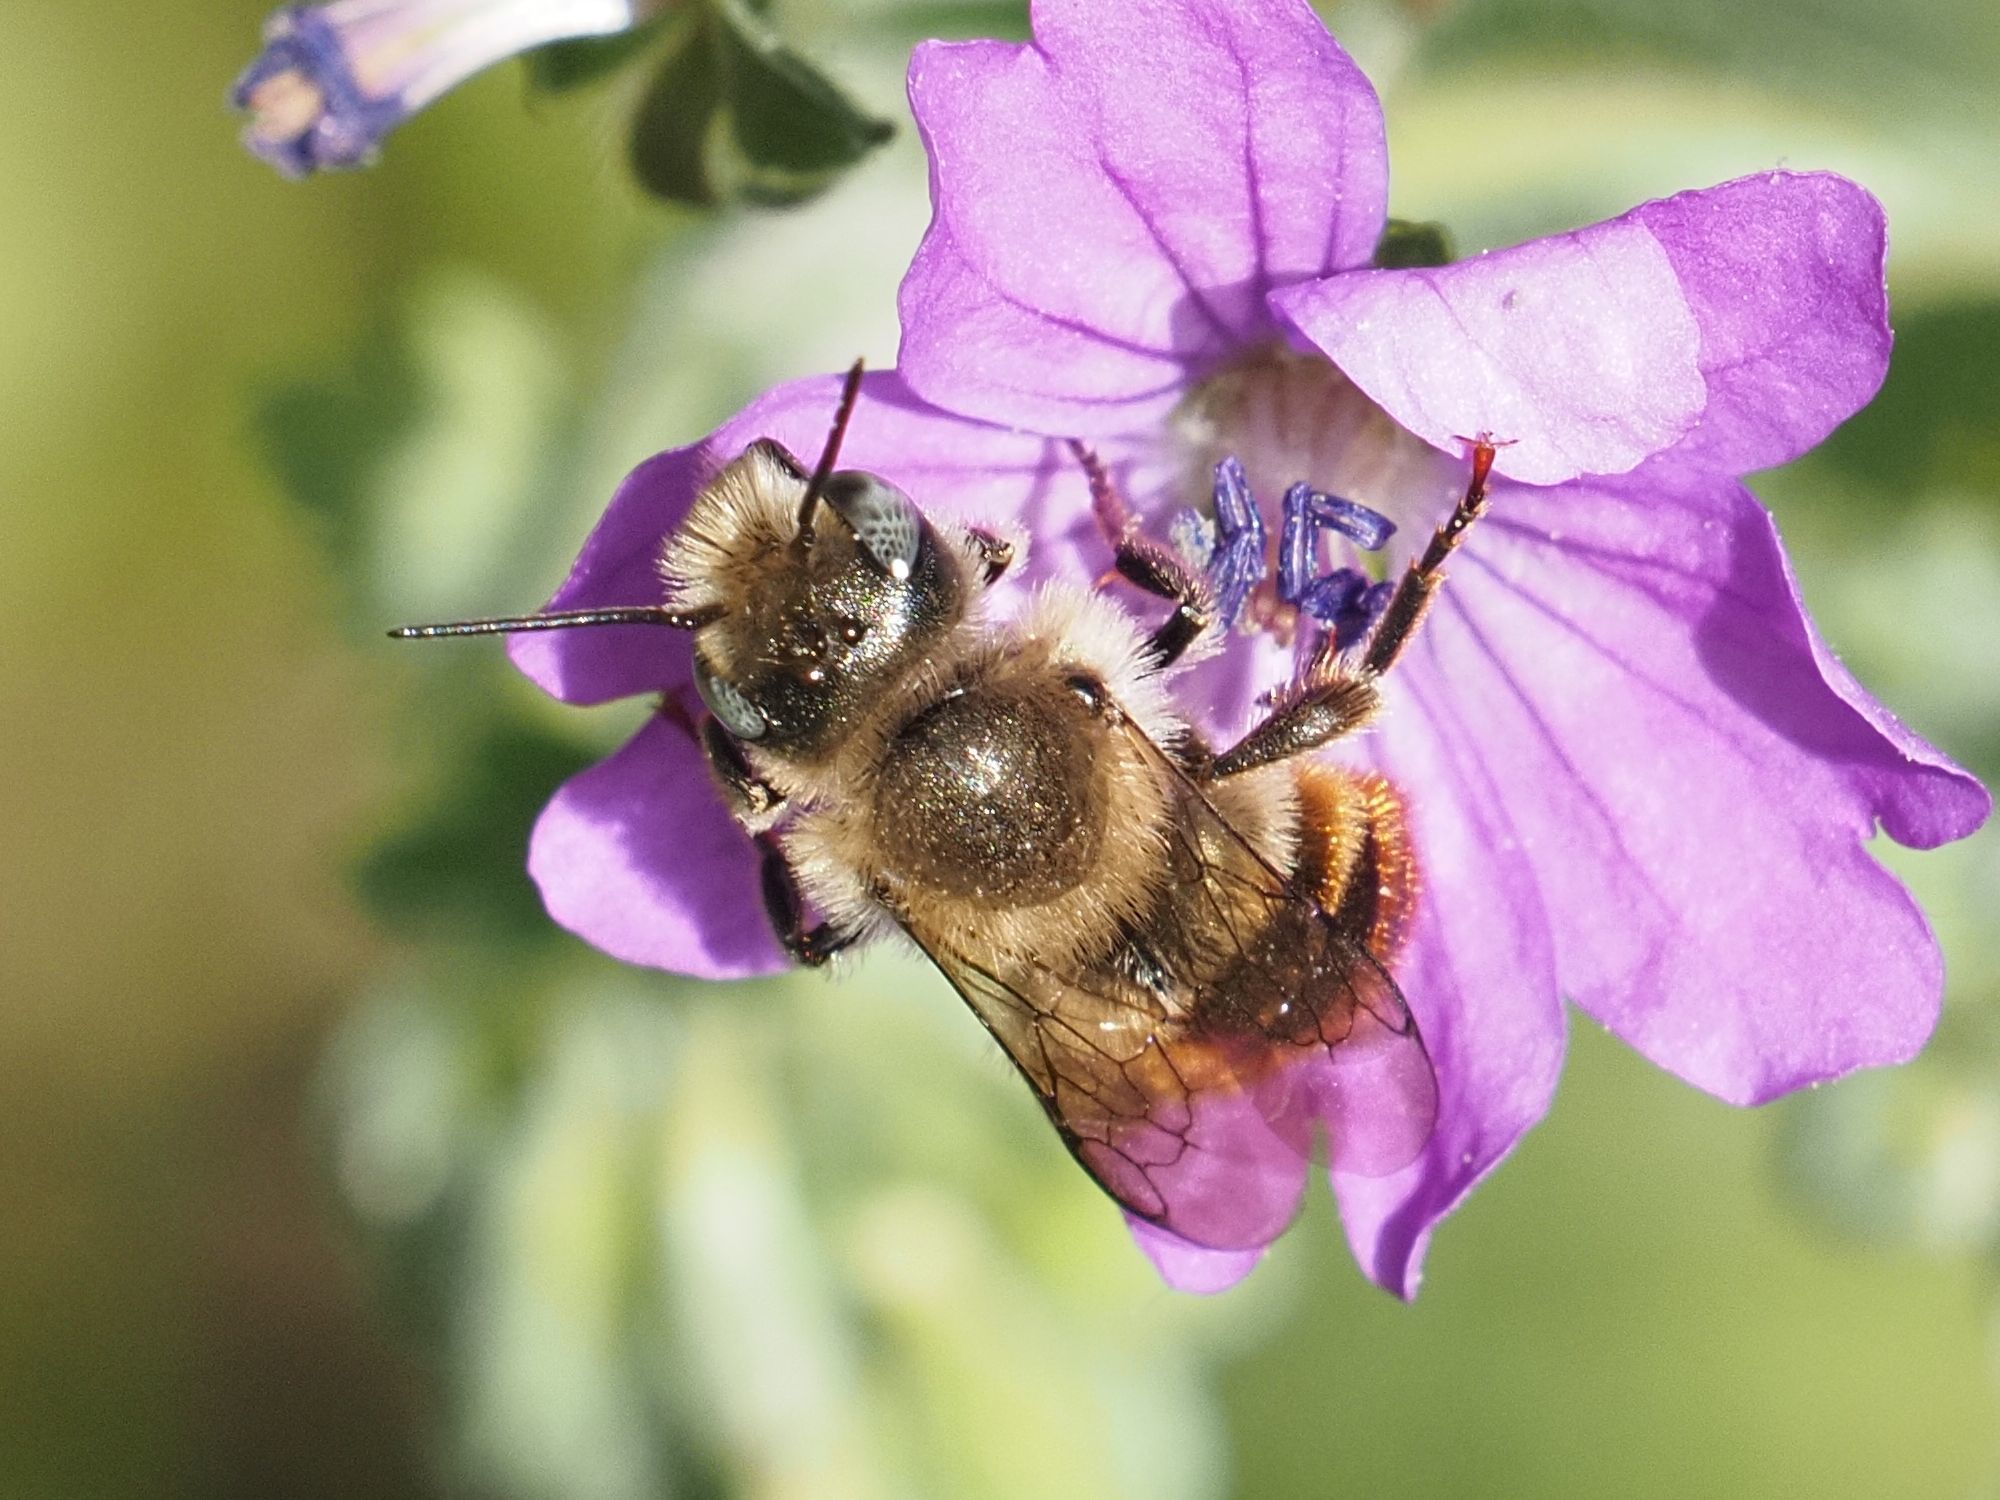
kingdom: Animalia
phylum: Arthropoda
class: Insecta
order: Hymenoptera
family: Megachilidae
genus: Osmia
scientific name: Osmia aurulenta
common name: Gold-fringed mason bee
